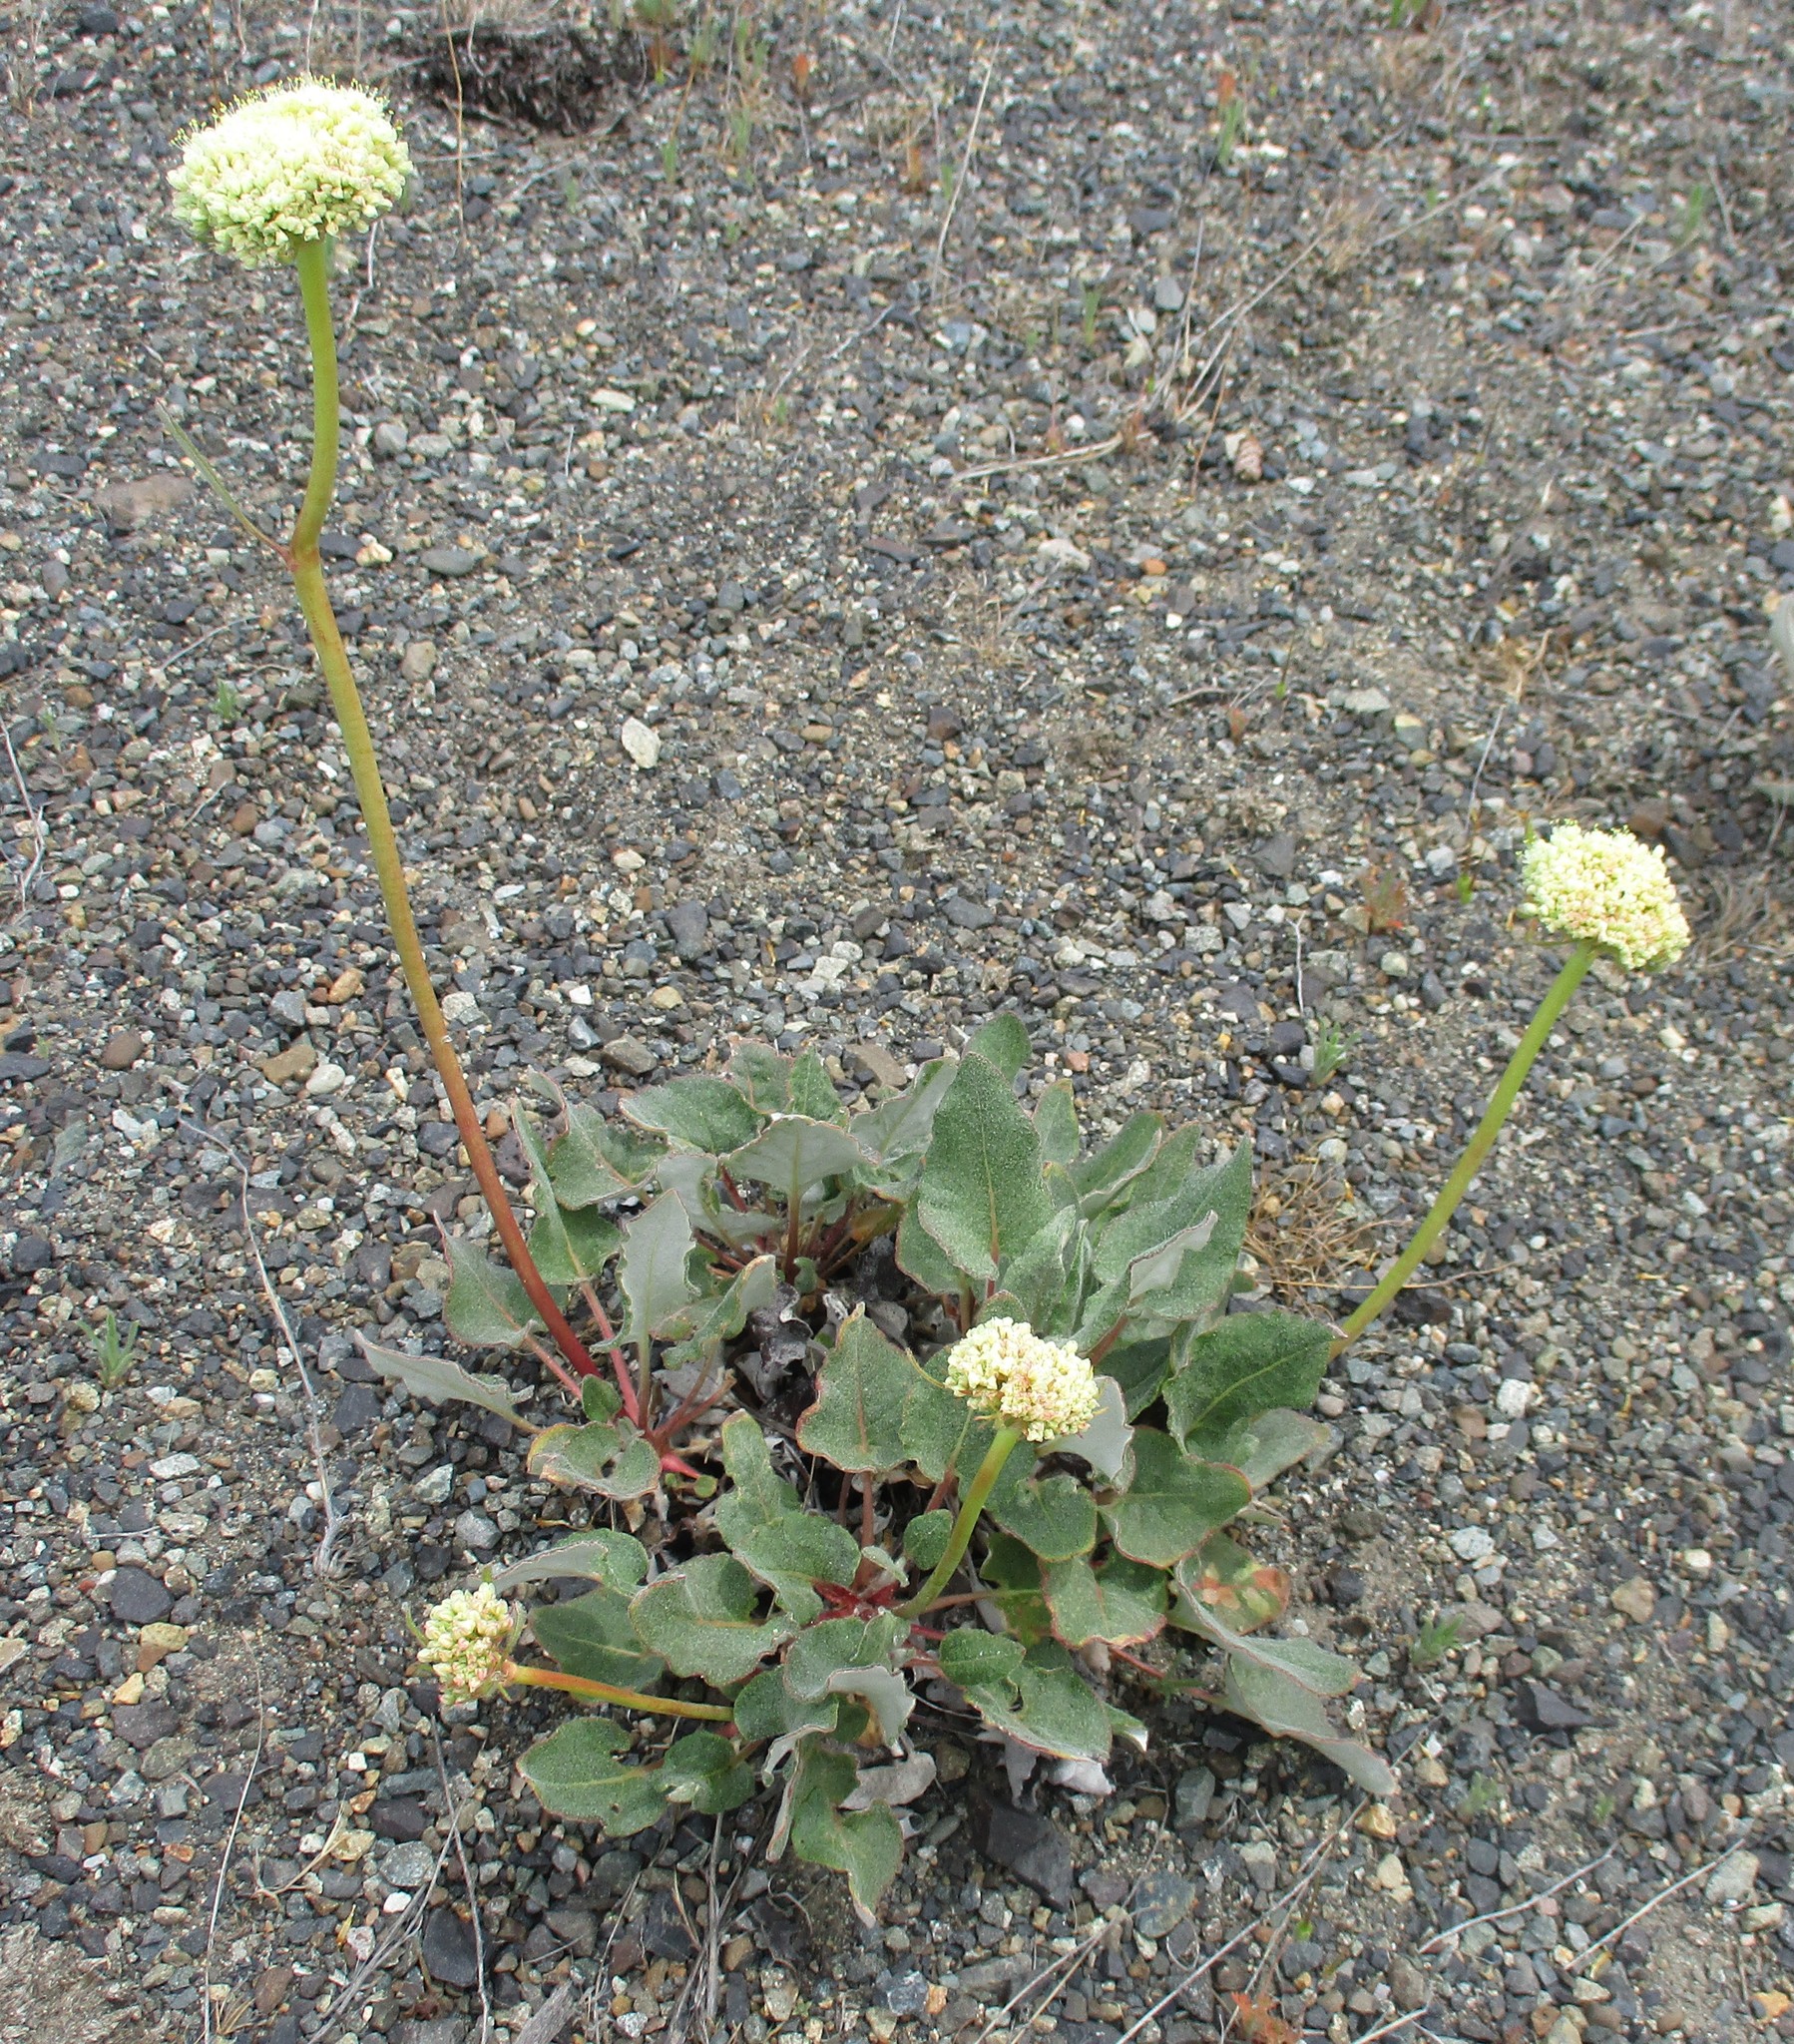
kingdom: Plantae
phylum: Tracheophyta
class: Magnoliopsida
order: Caryophyllales
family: Polygonaceae
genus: Eriogonum
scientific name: Eriogonum compositum
